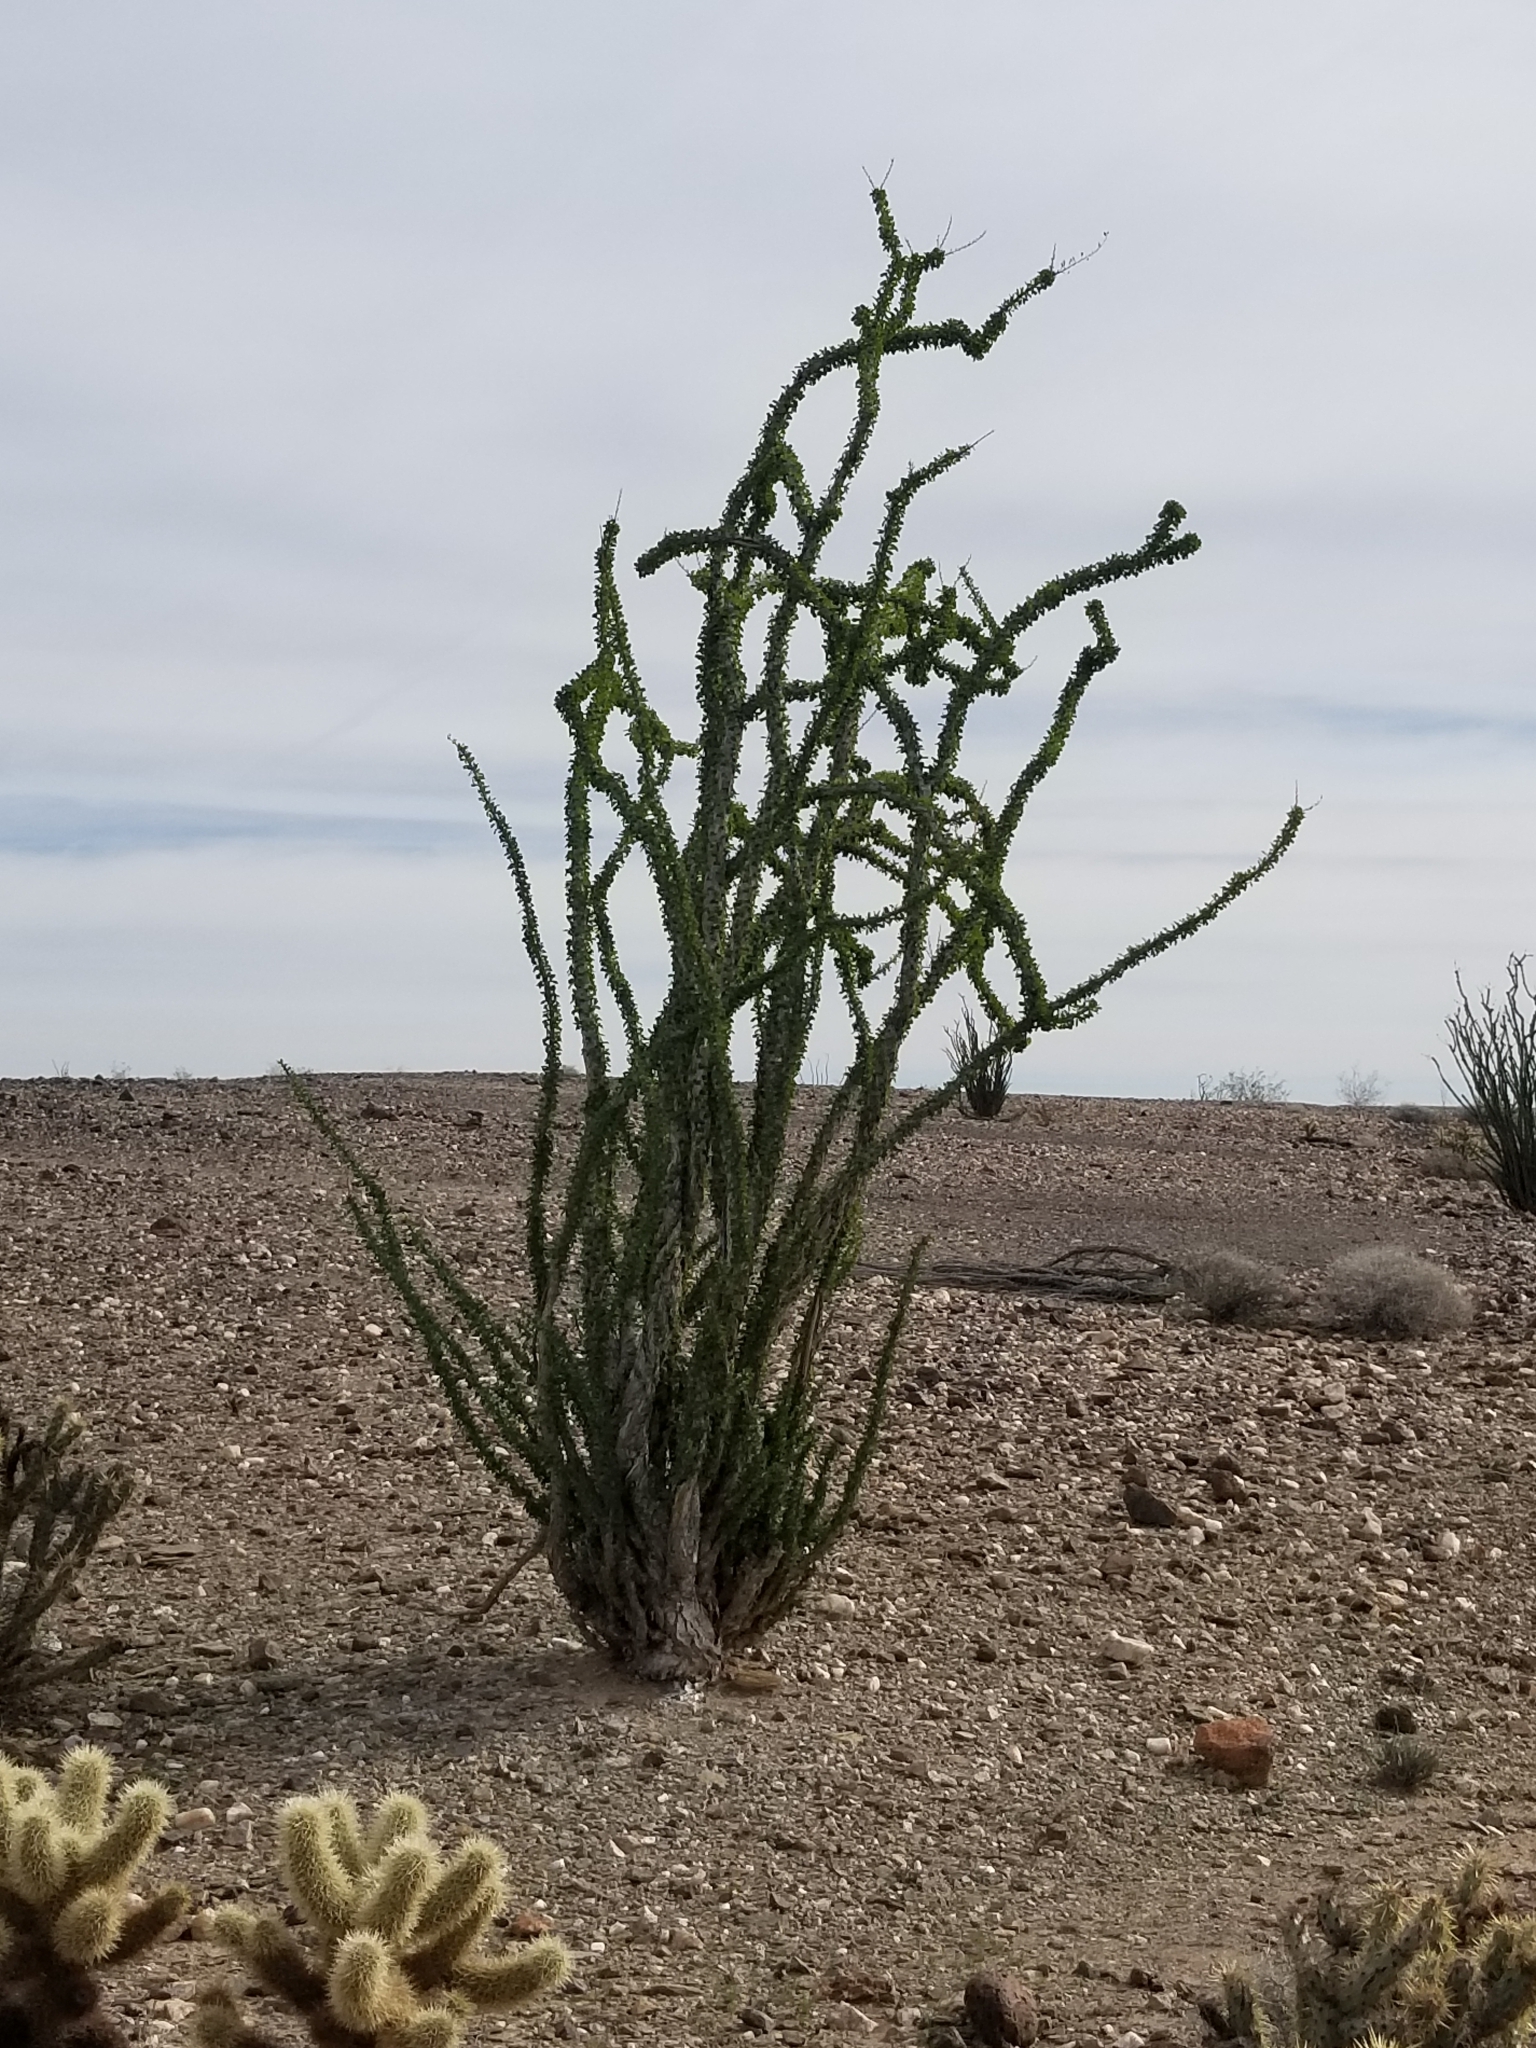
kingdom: Plantae
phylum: Tracheophyta
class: Magnoliopsida
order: Ericales
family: Fouquieriaceae
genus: Fouquieria
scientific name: Fouquieria splendens
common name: Vine-cactus
